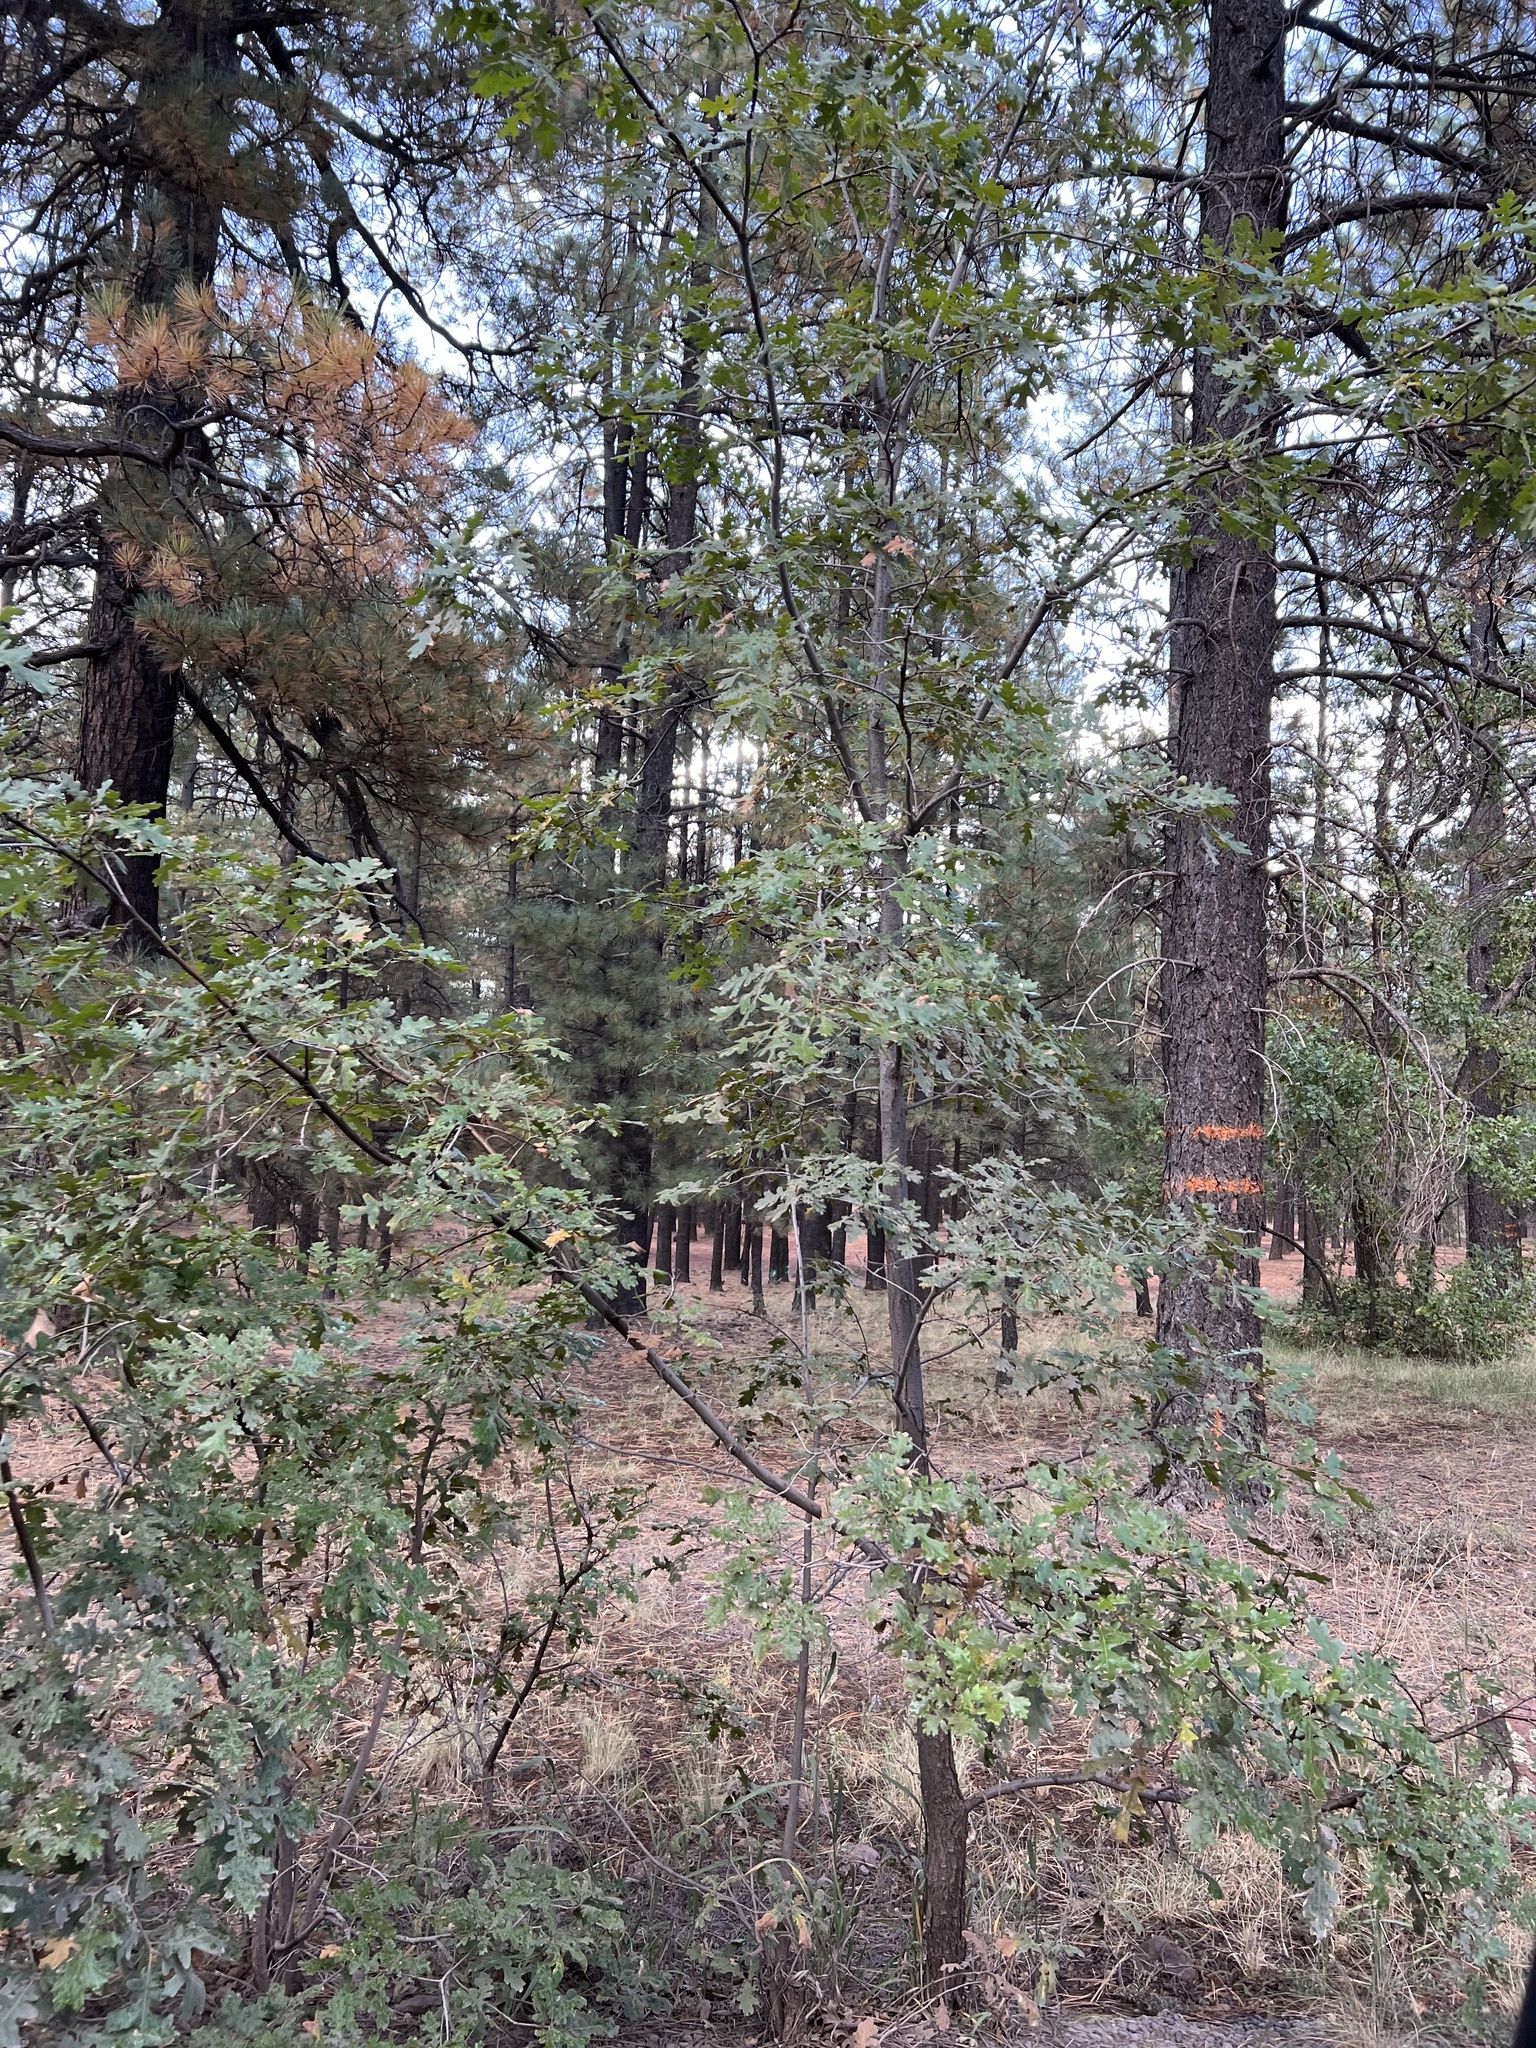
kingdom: Plantae
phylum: Tracheophyta
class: Magnoliopsida
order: Fagales
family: Fagaceae
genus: Quercus
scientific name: Quercus gambelii
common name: Gambel oak
